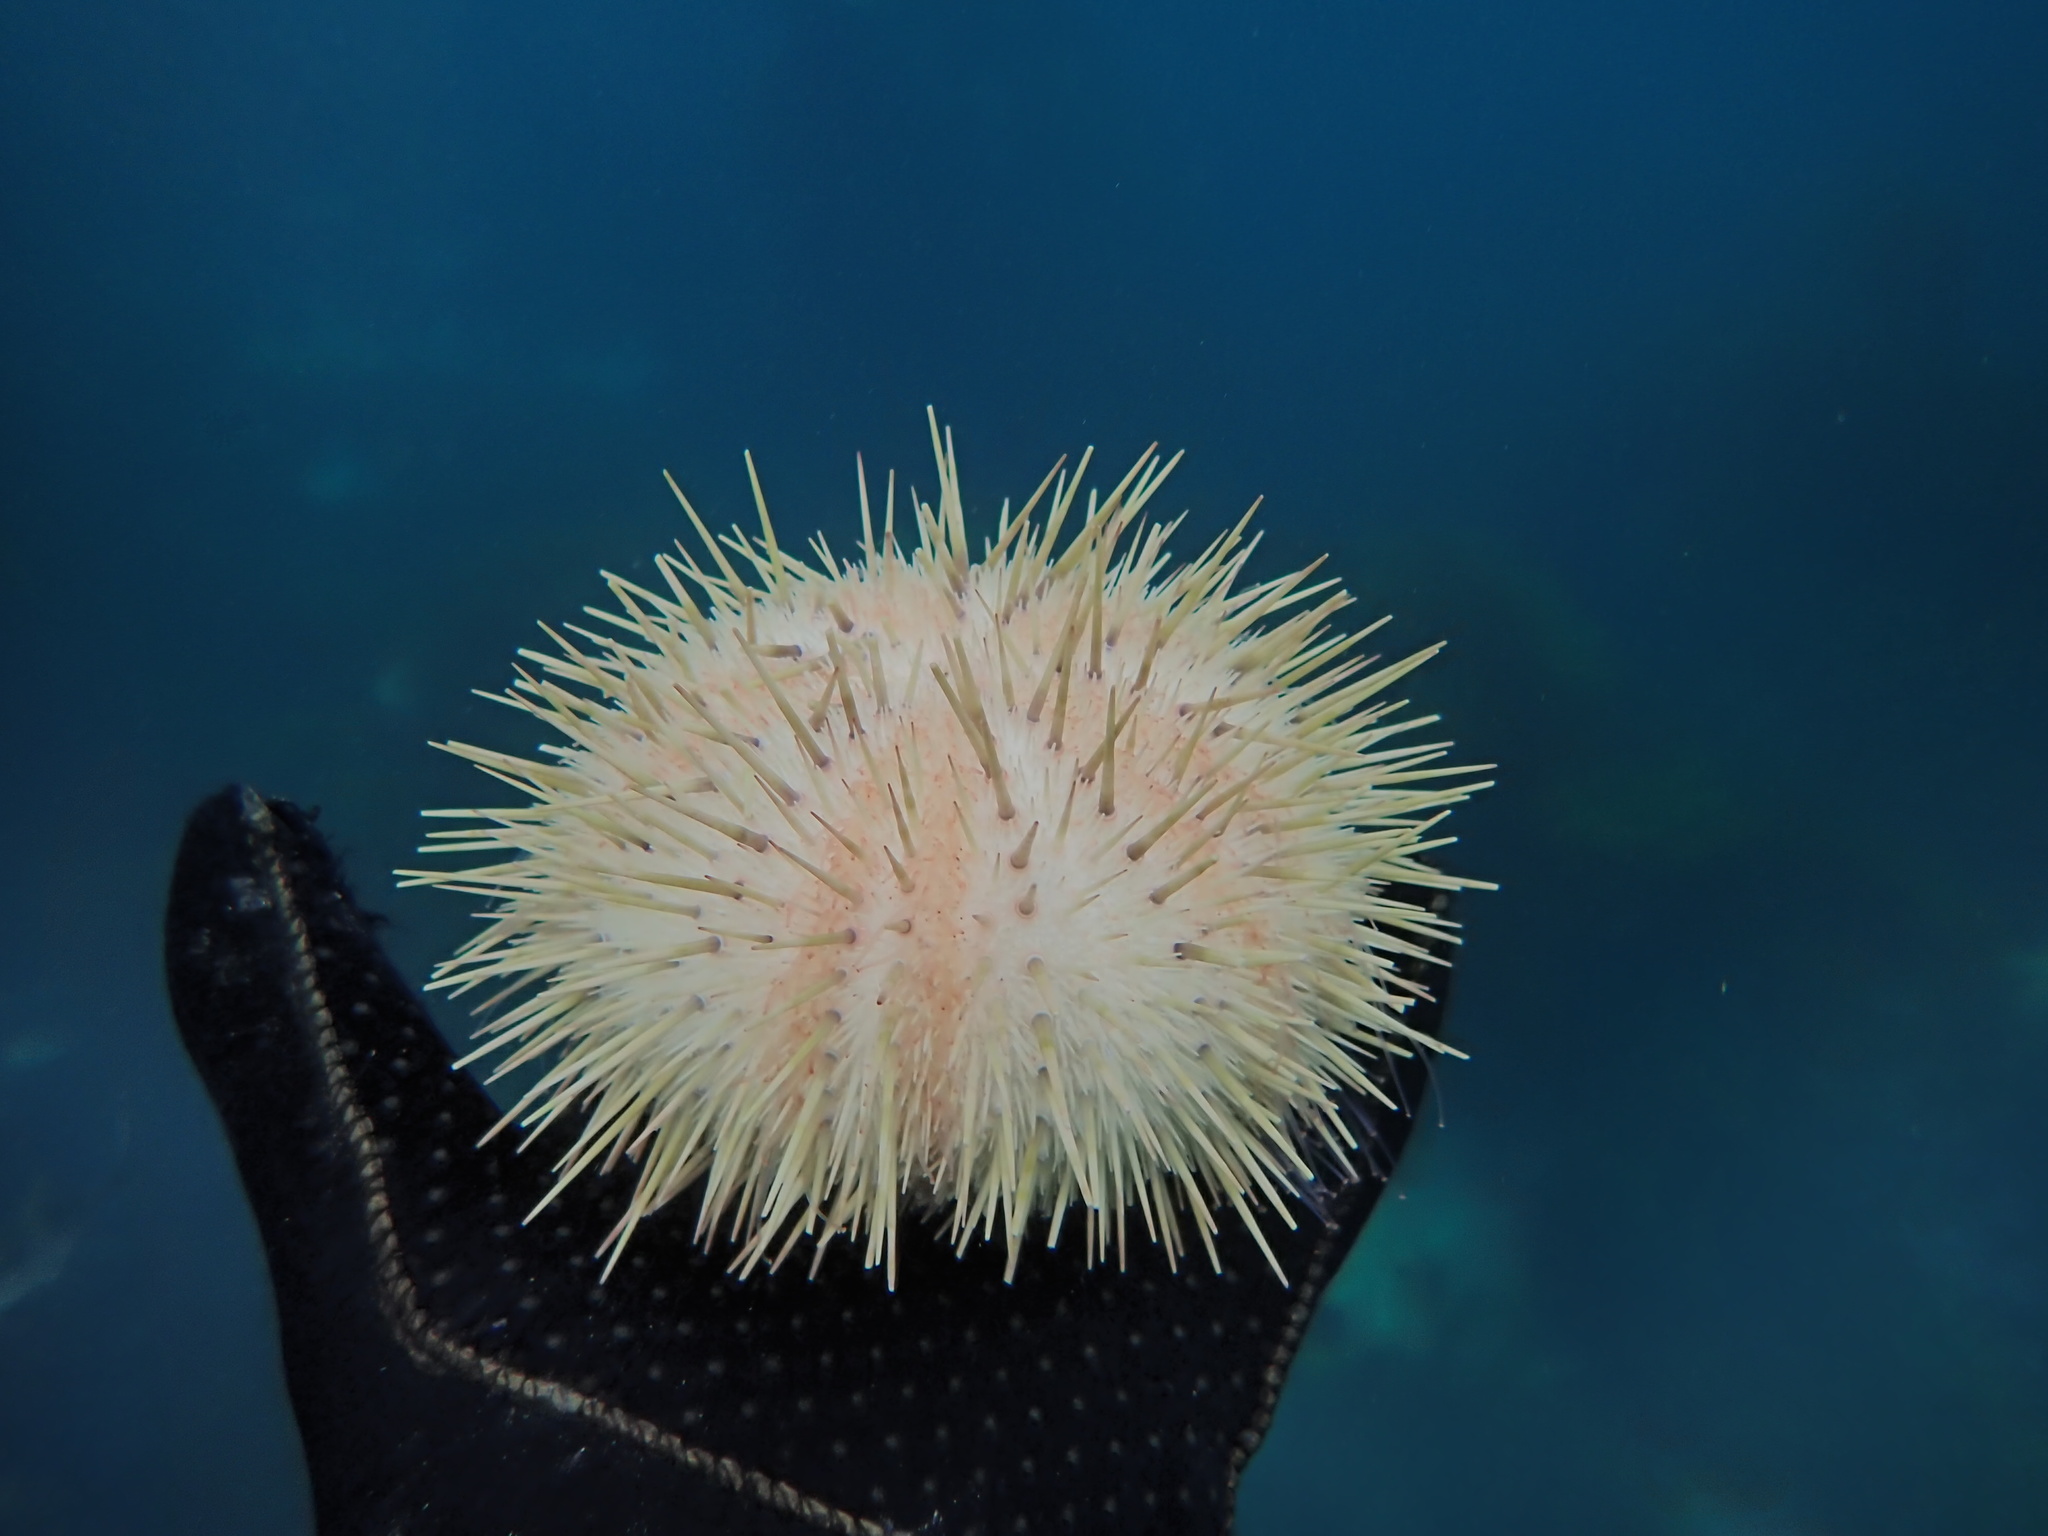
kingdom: Animalia
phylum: Echinodermata
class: Echinoidea
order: Camarodonta
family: Echinometridae
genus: Heliocidaris
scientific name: Heliocidaris erythrogramma
